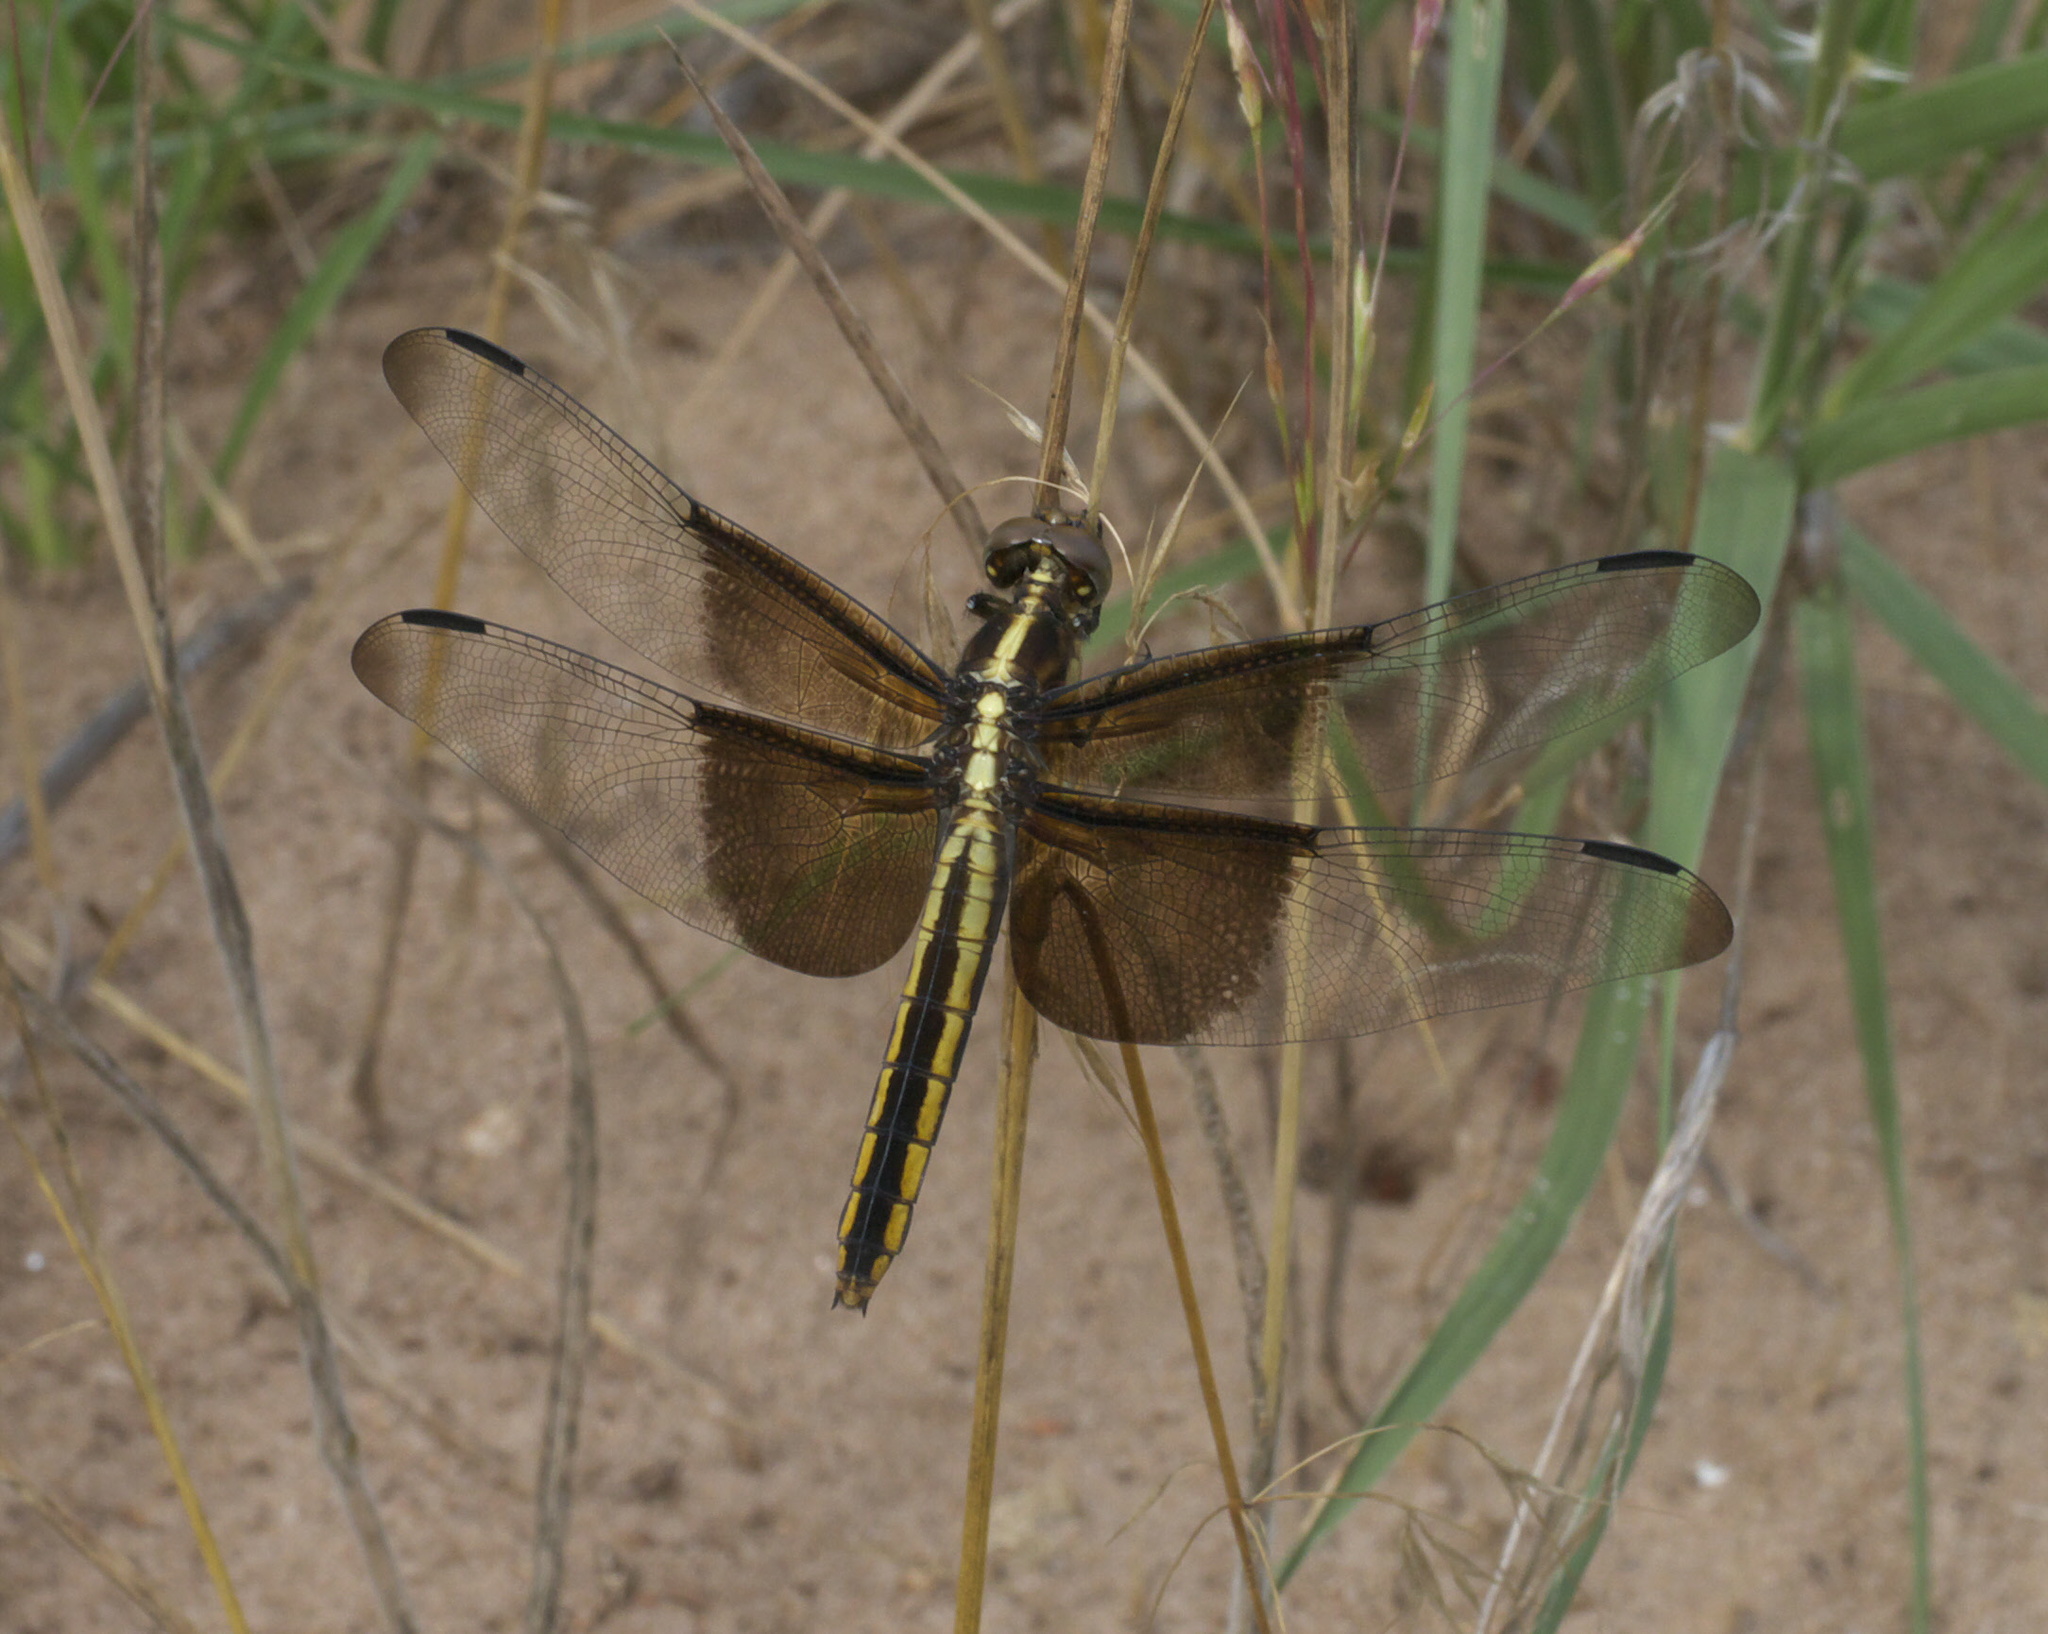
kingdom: Animalia
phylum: Arthropoda
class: Insecta
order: Odonata
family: Libellulidae
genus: Libellula
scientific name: Libellula luctuosa
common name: Widow skimmer
